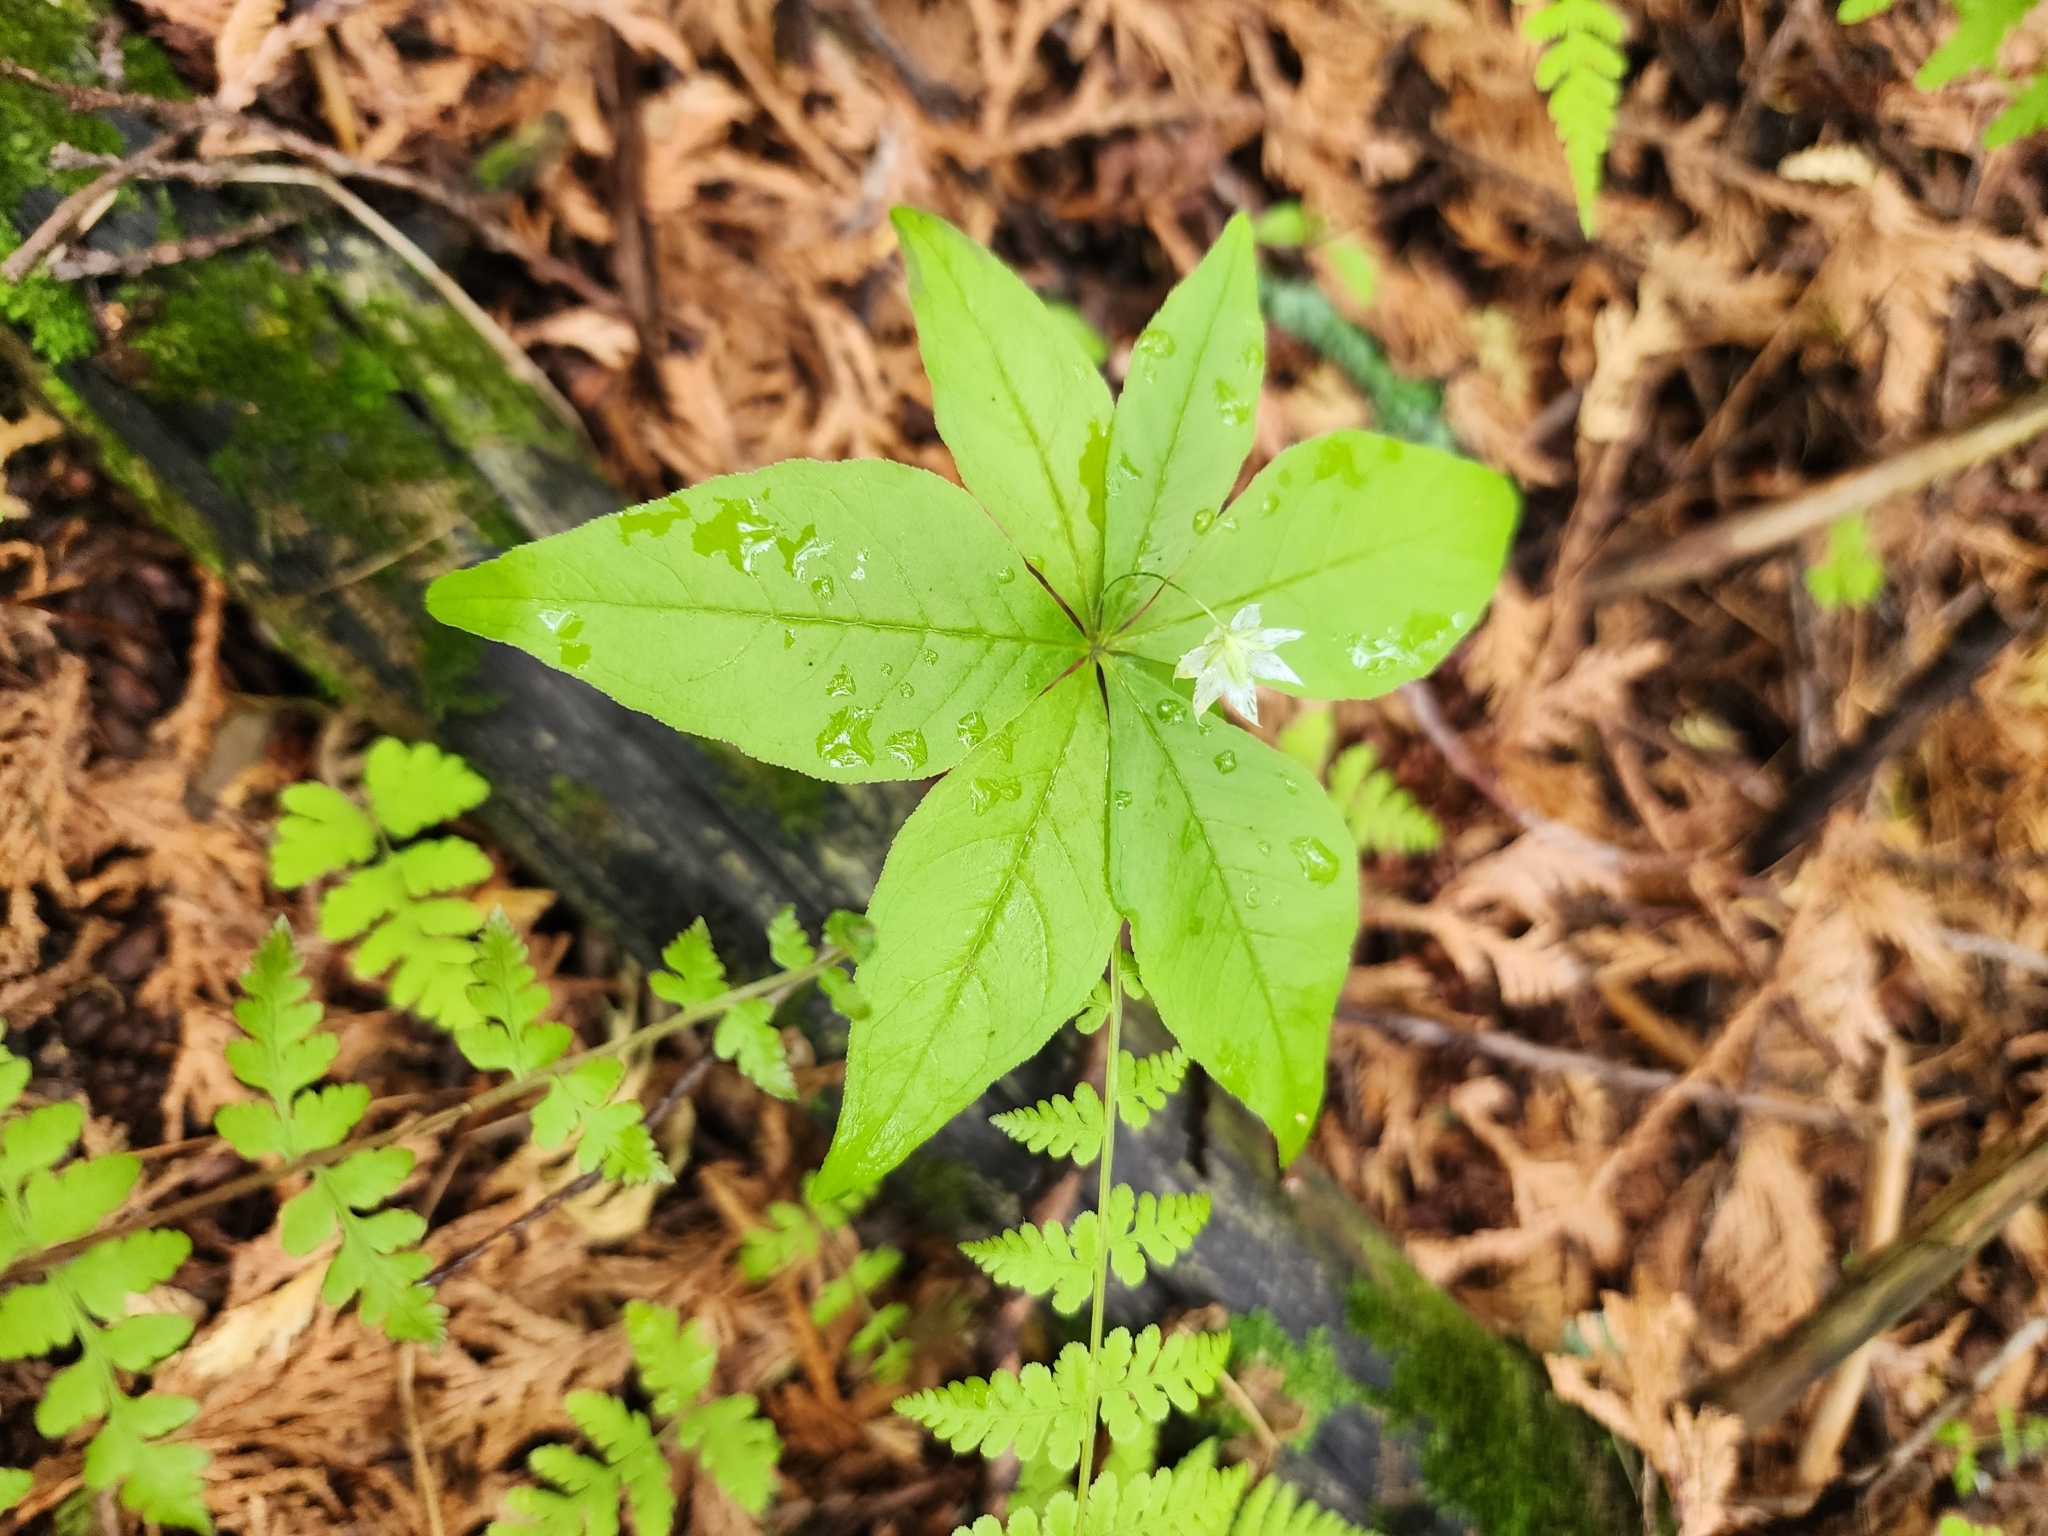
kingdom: Plantae
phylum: Tracheophyta
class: Magnoliopsida
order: Ericales
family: Primulaceae
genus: Lysimachia
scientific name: Lysimachia borealis
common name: American starflower
